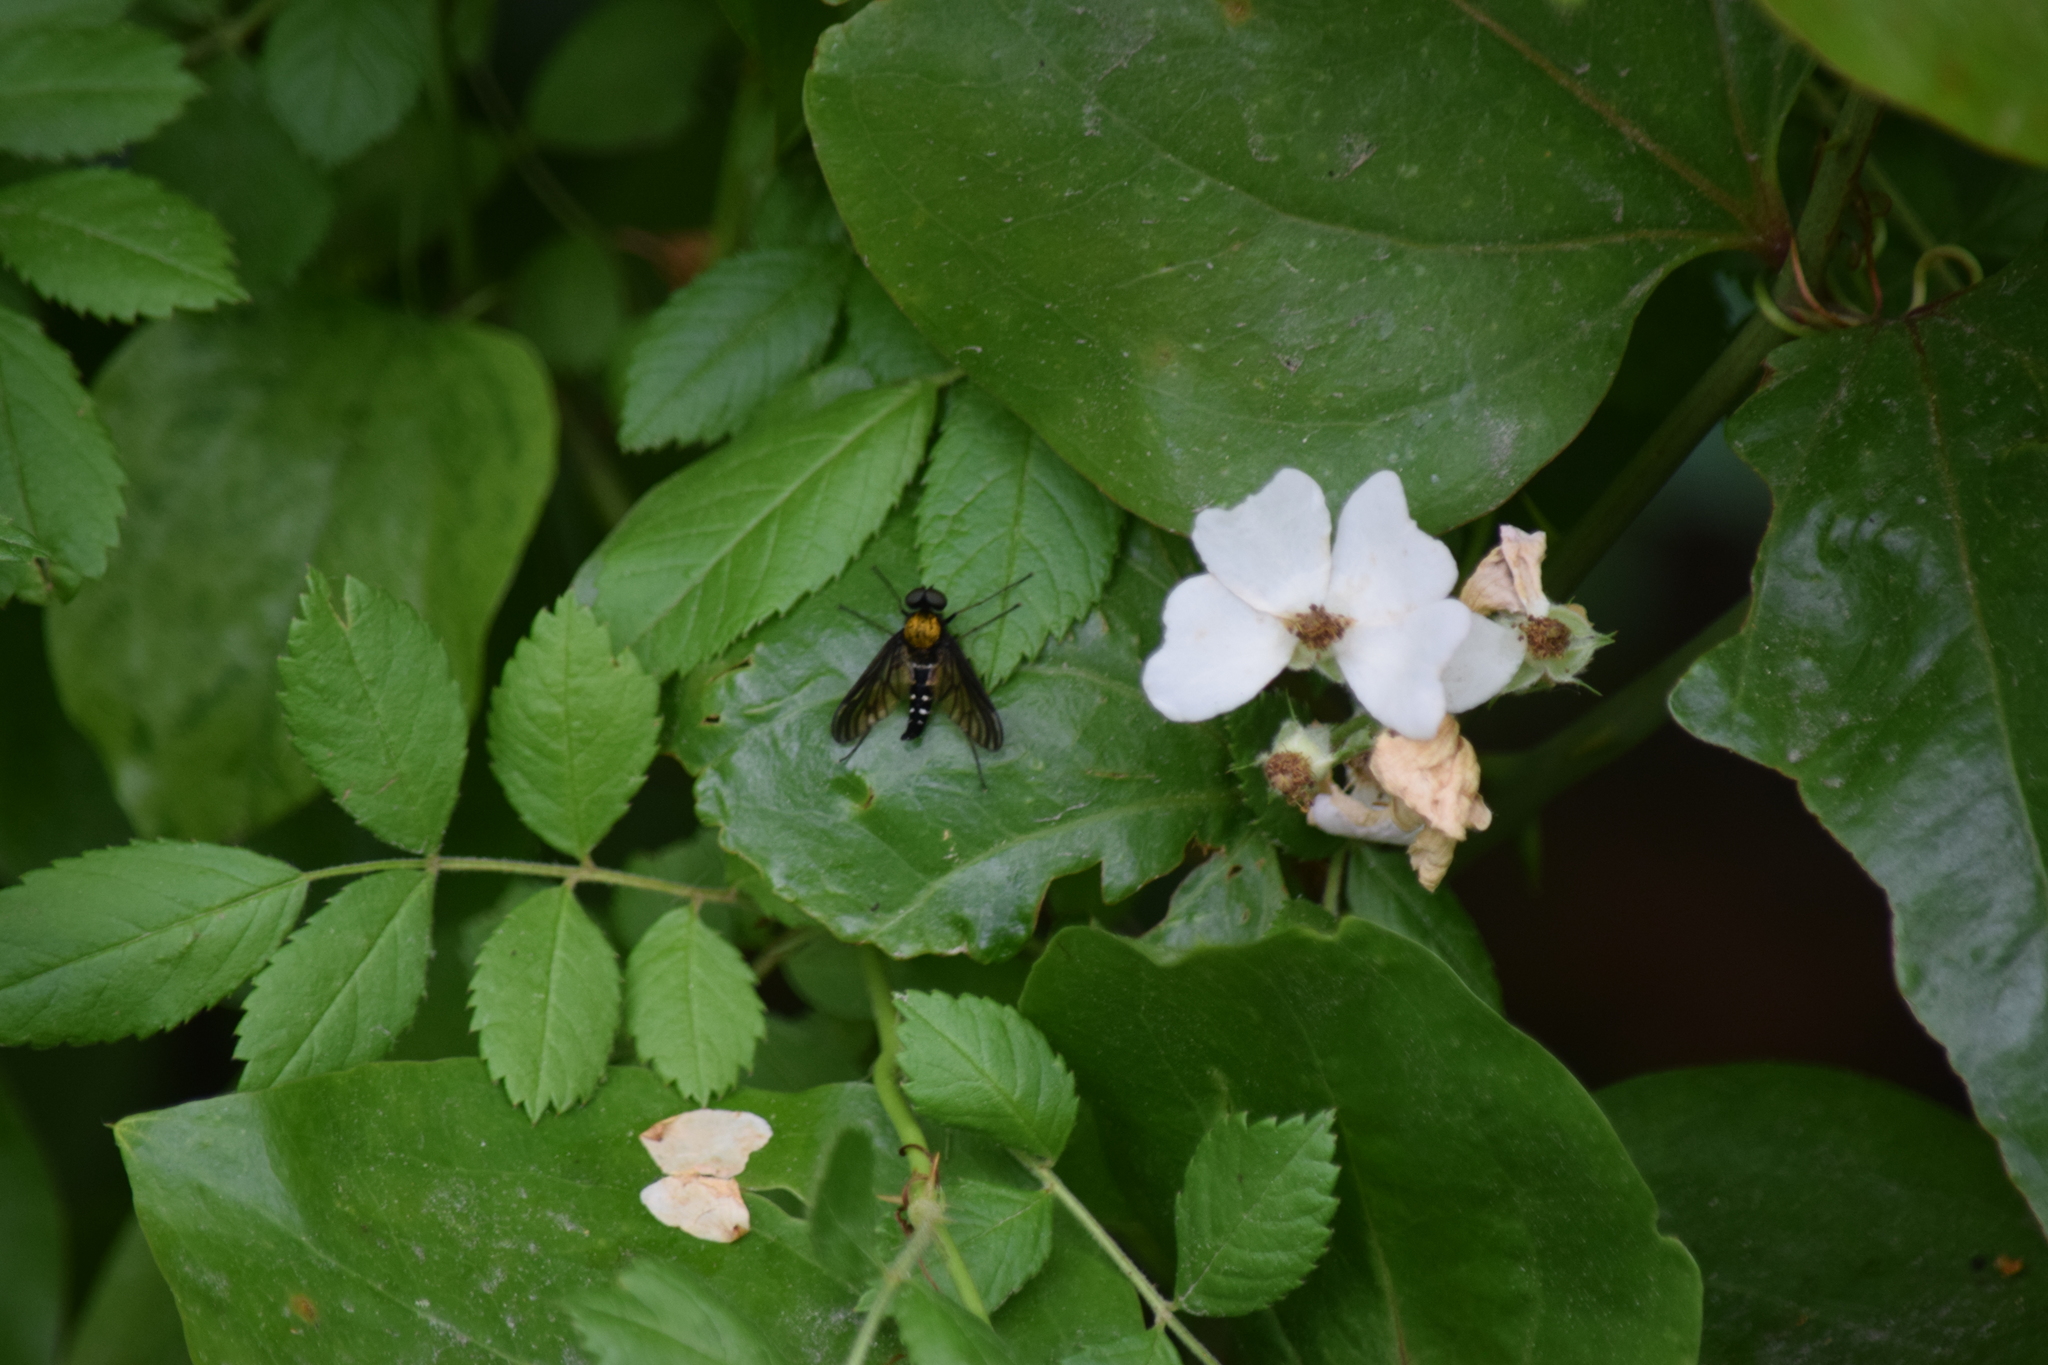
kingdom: Animalia
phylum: Arthropoda
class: Insecta
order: Diptera
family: Rhagionidae
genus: Chrysopilus
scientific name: Chrysopilus thoracicus
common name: Golden-backed snipe fly
